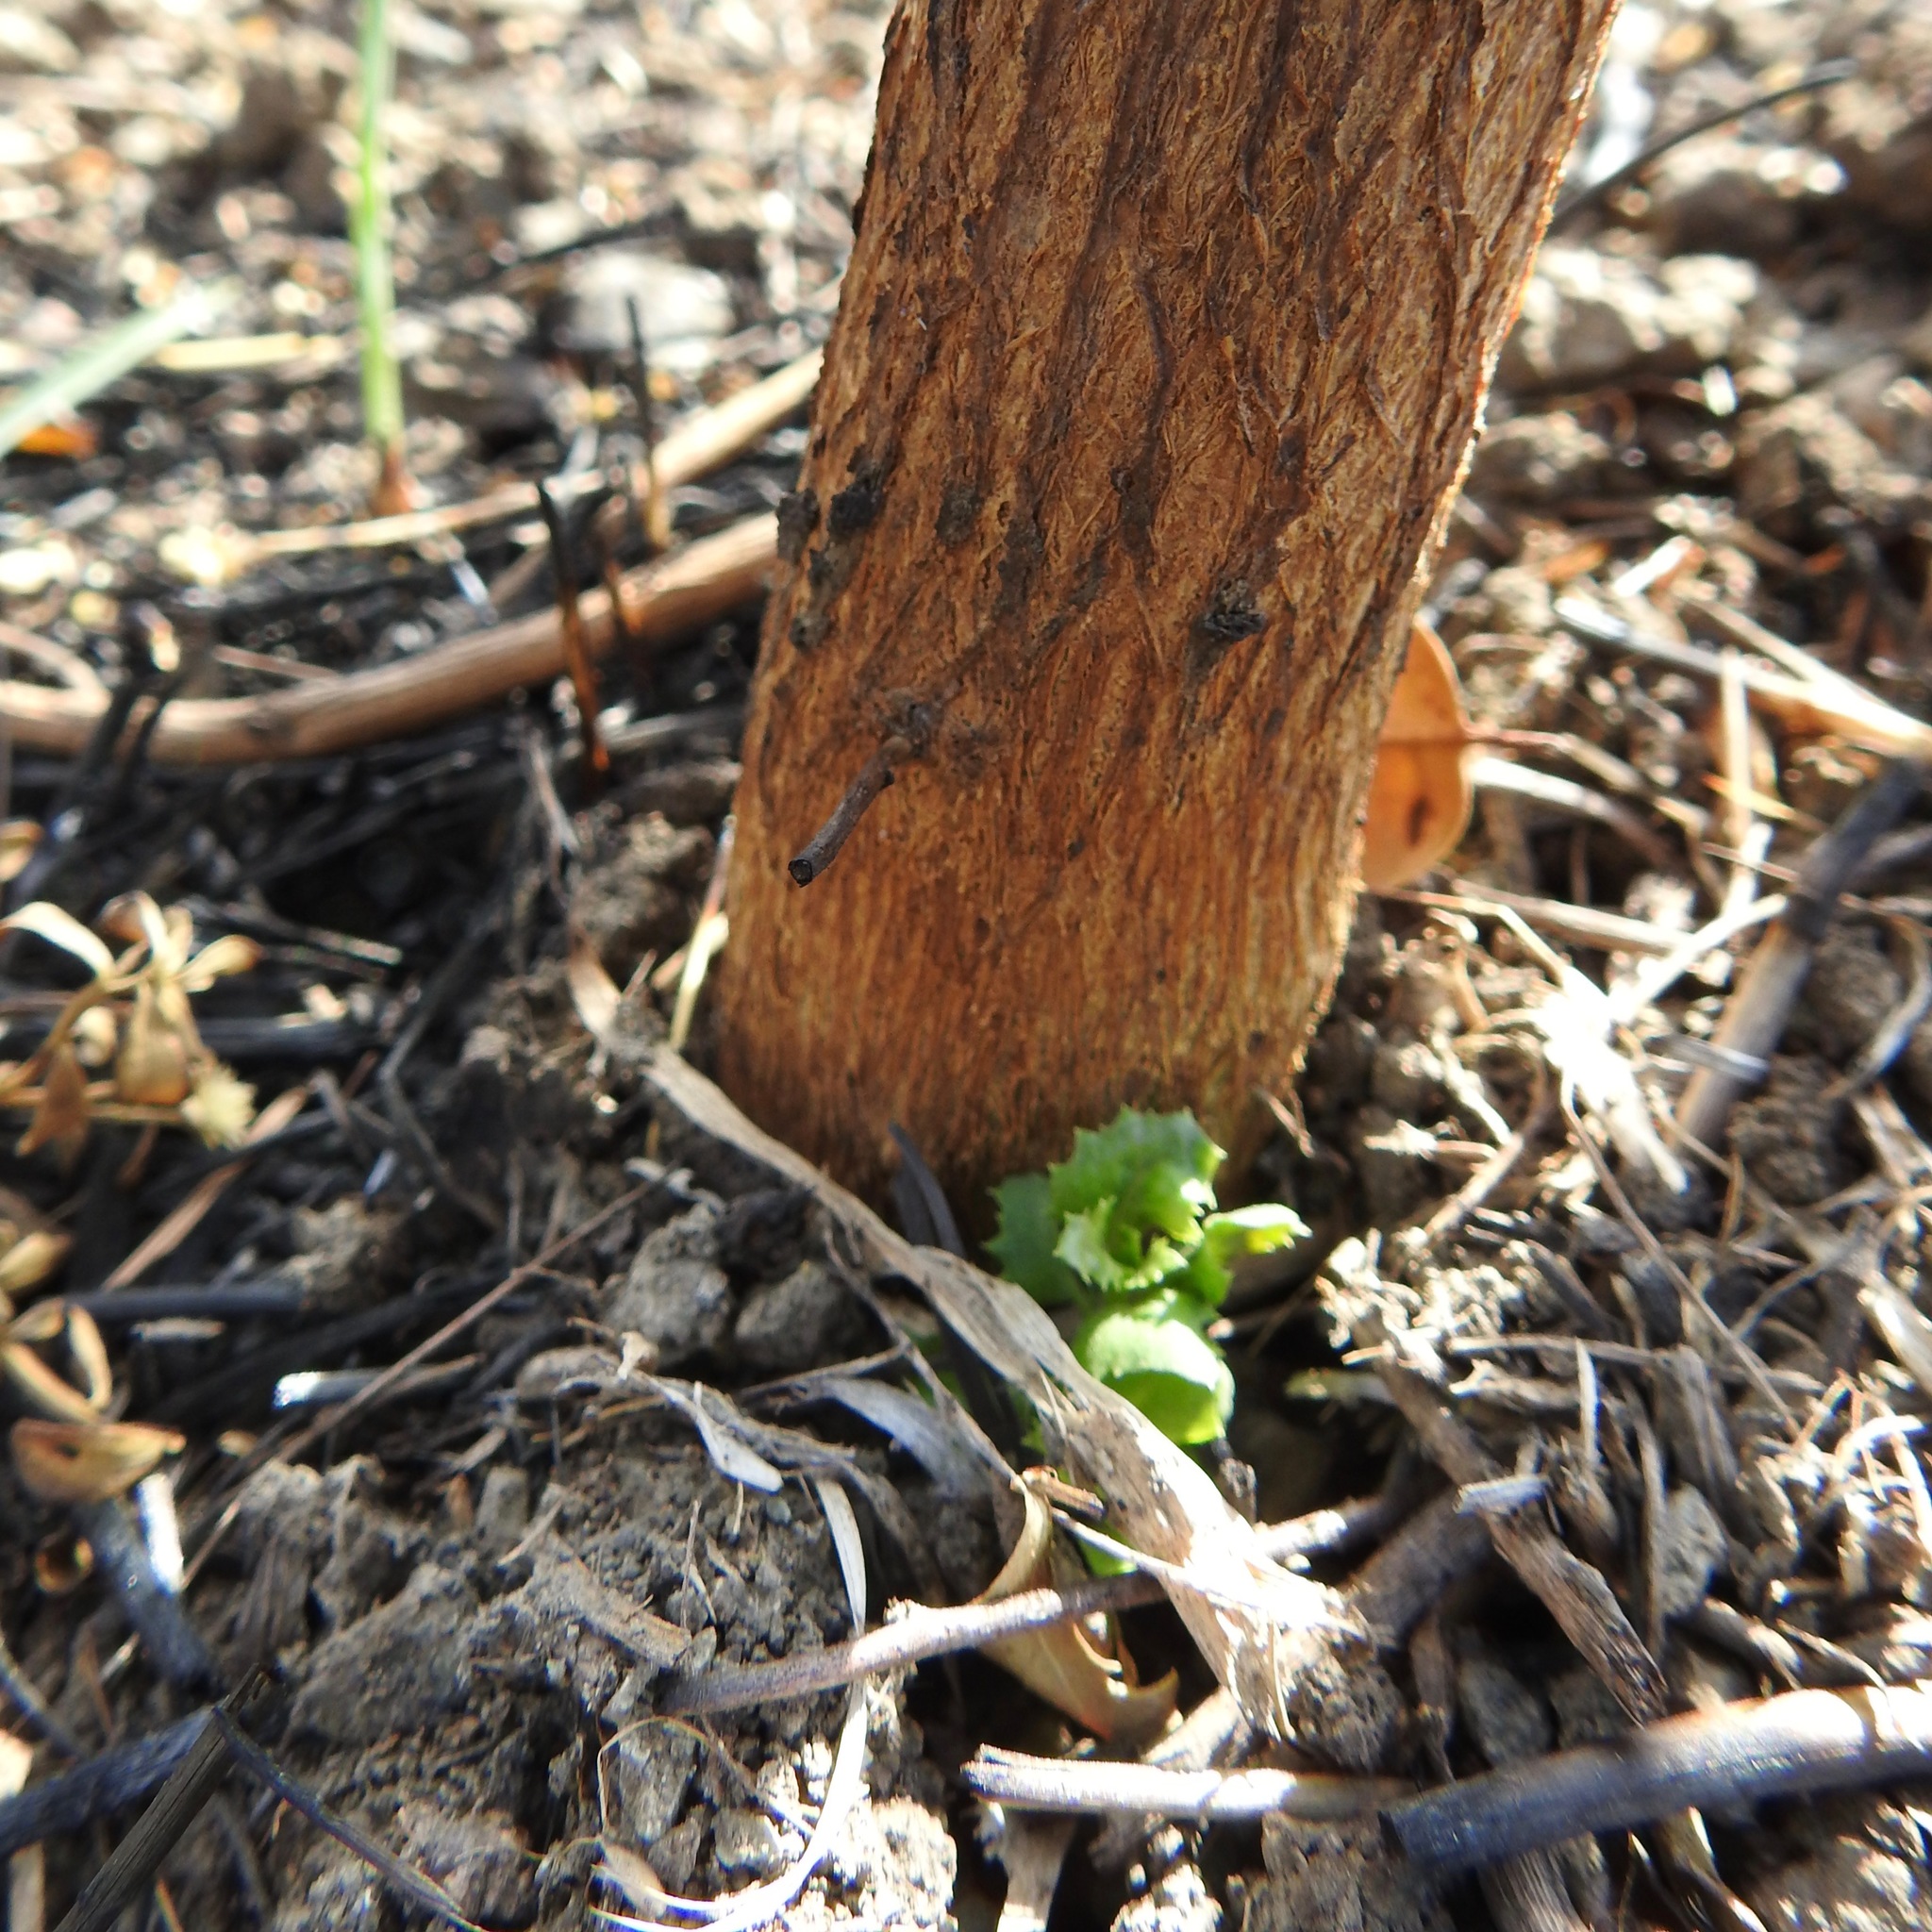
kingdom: Plantae
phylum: Tracheophyta
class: Magnoliopsida
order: Asterales
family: Asteraceae
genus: Baccharis
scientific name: Baccharis pilularis
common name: Coyotebrush
